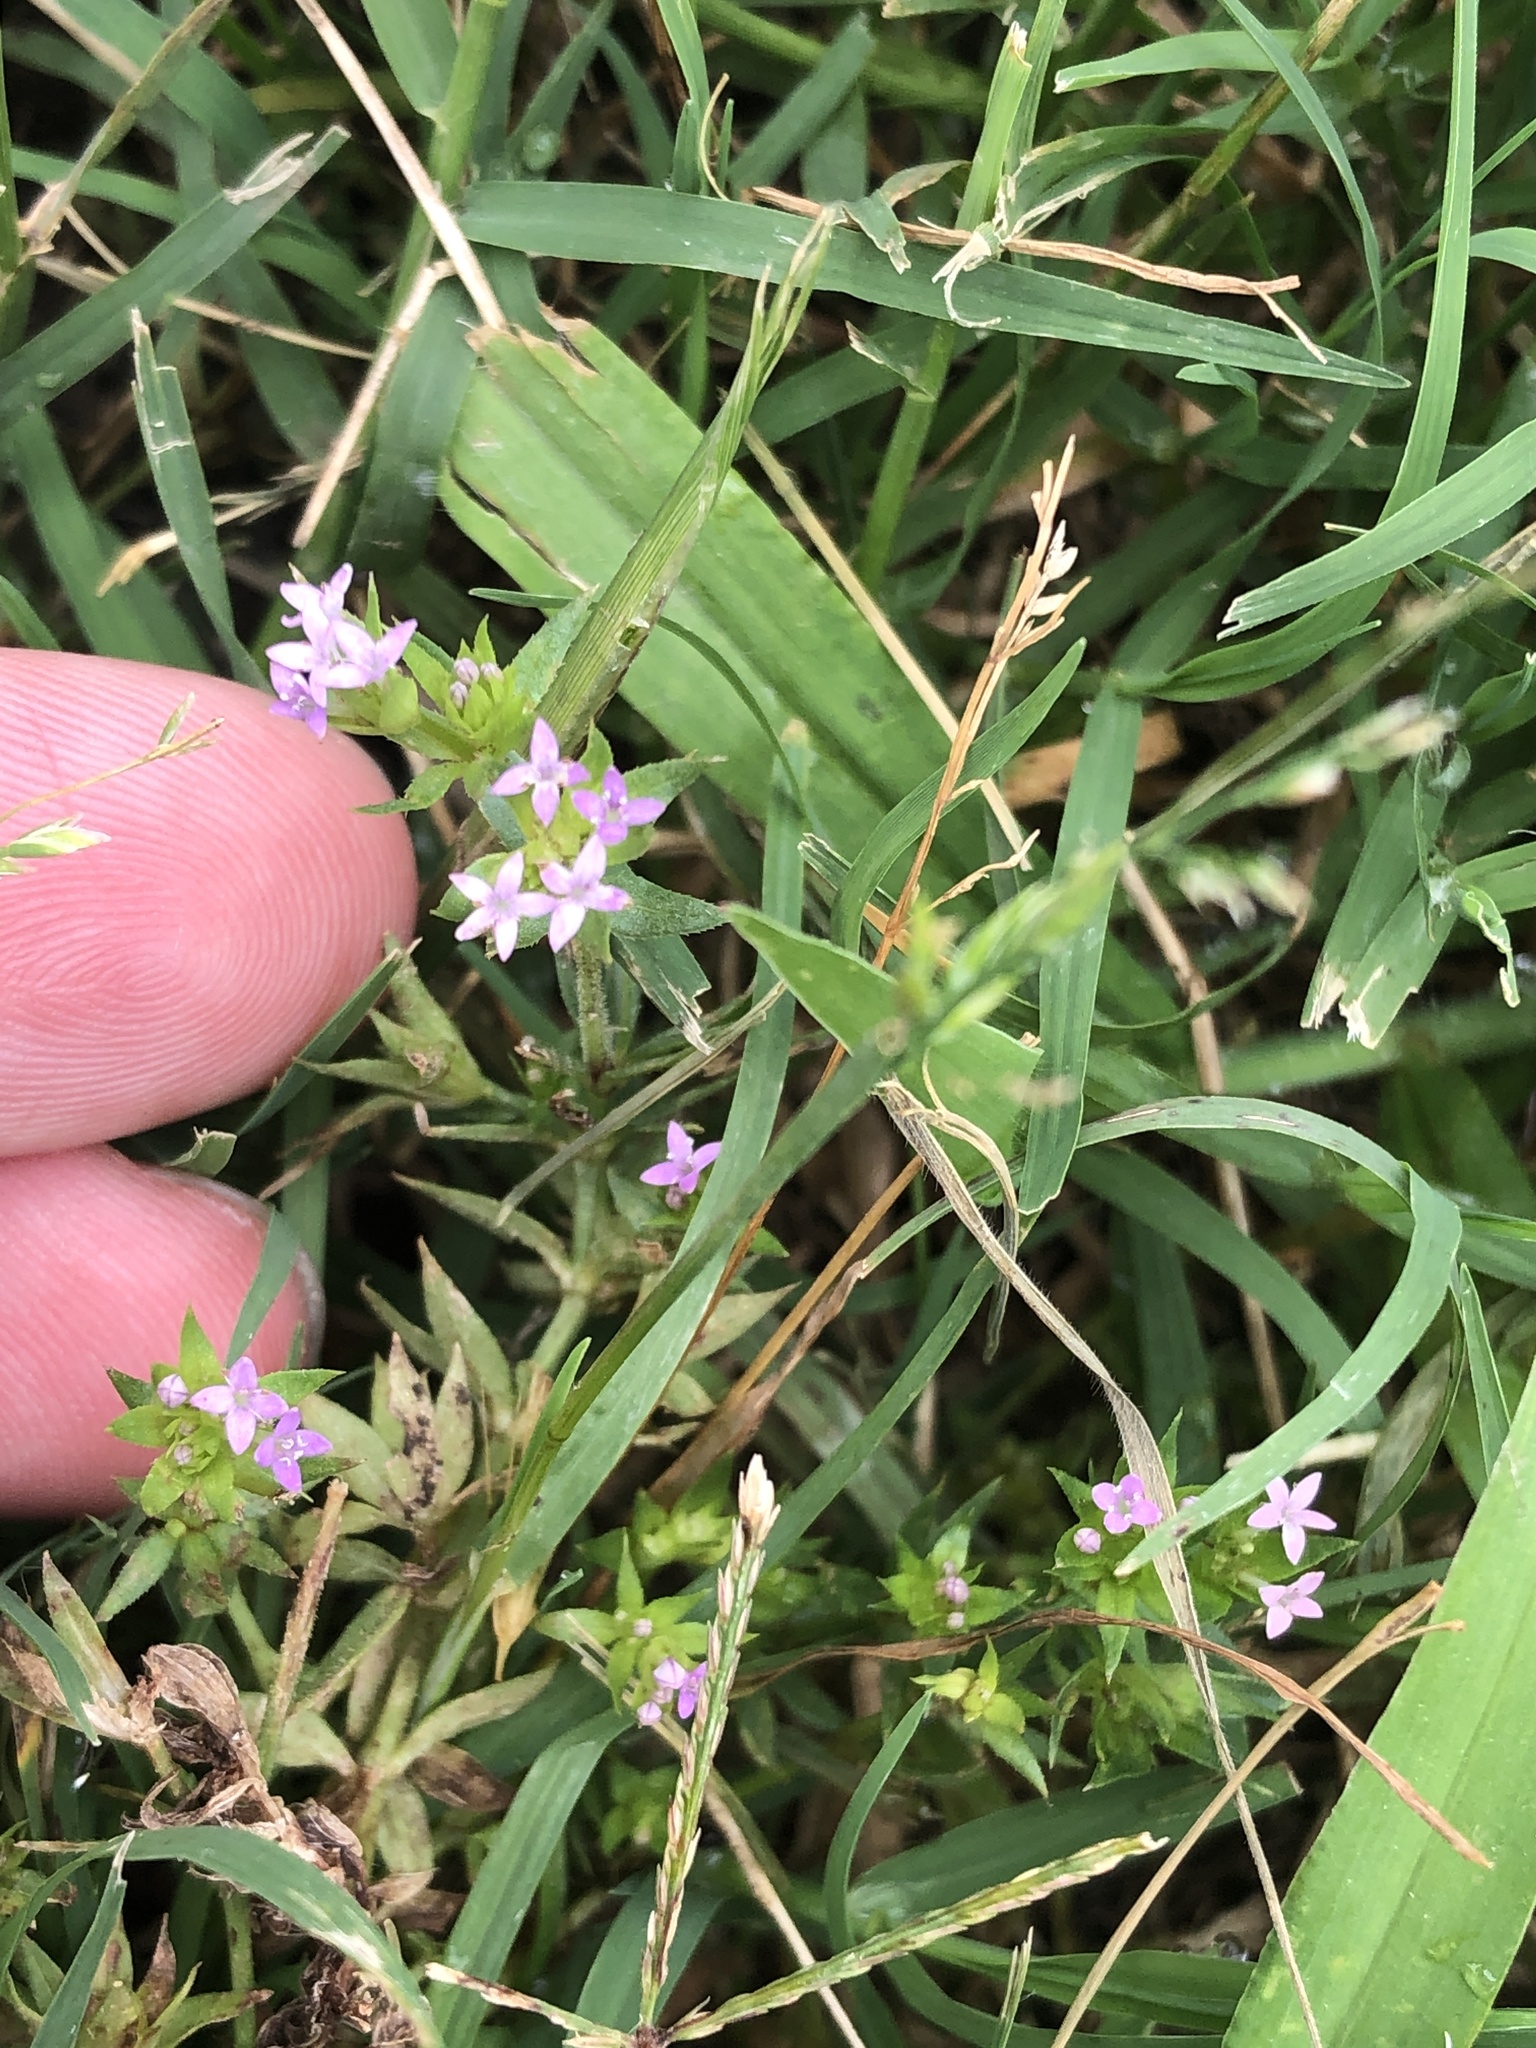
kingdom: Plantae
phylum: Tracheophyta
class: Magnoliopsida
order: Gentianales
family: Rubiaceae
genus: Sherardia
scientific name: Sherardia arvensis
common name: Field madder
